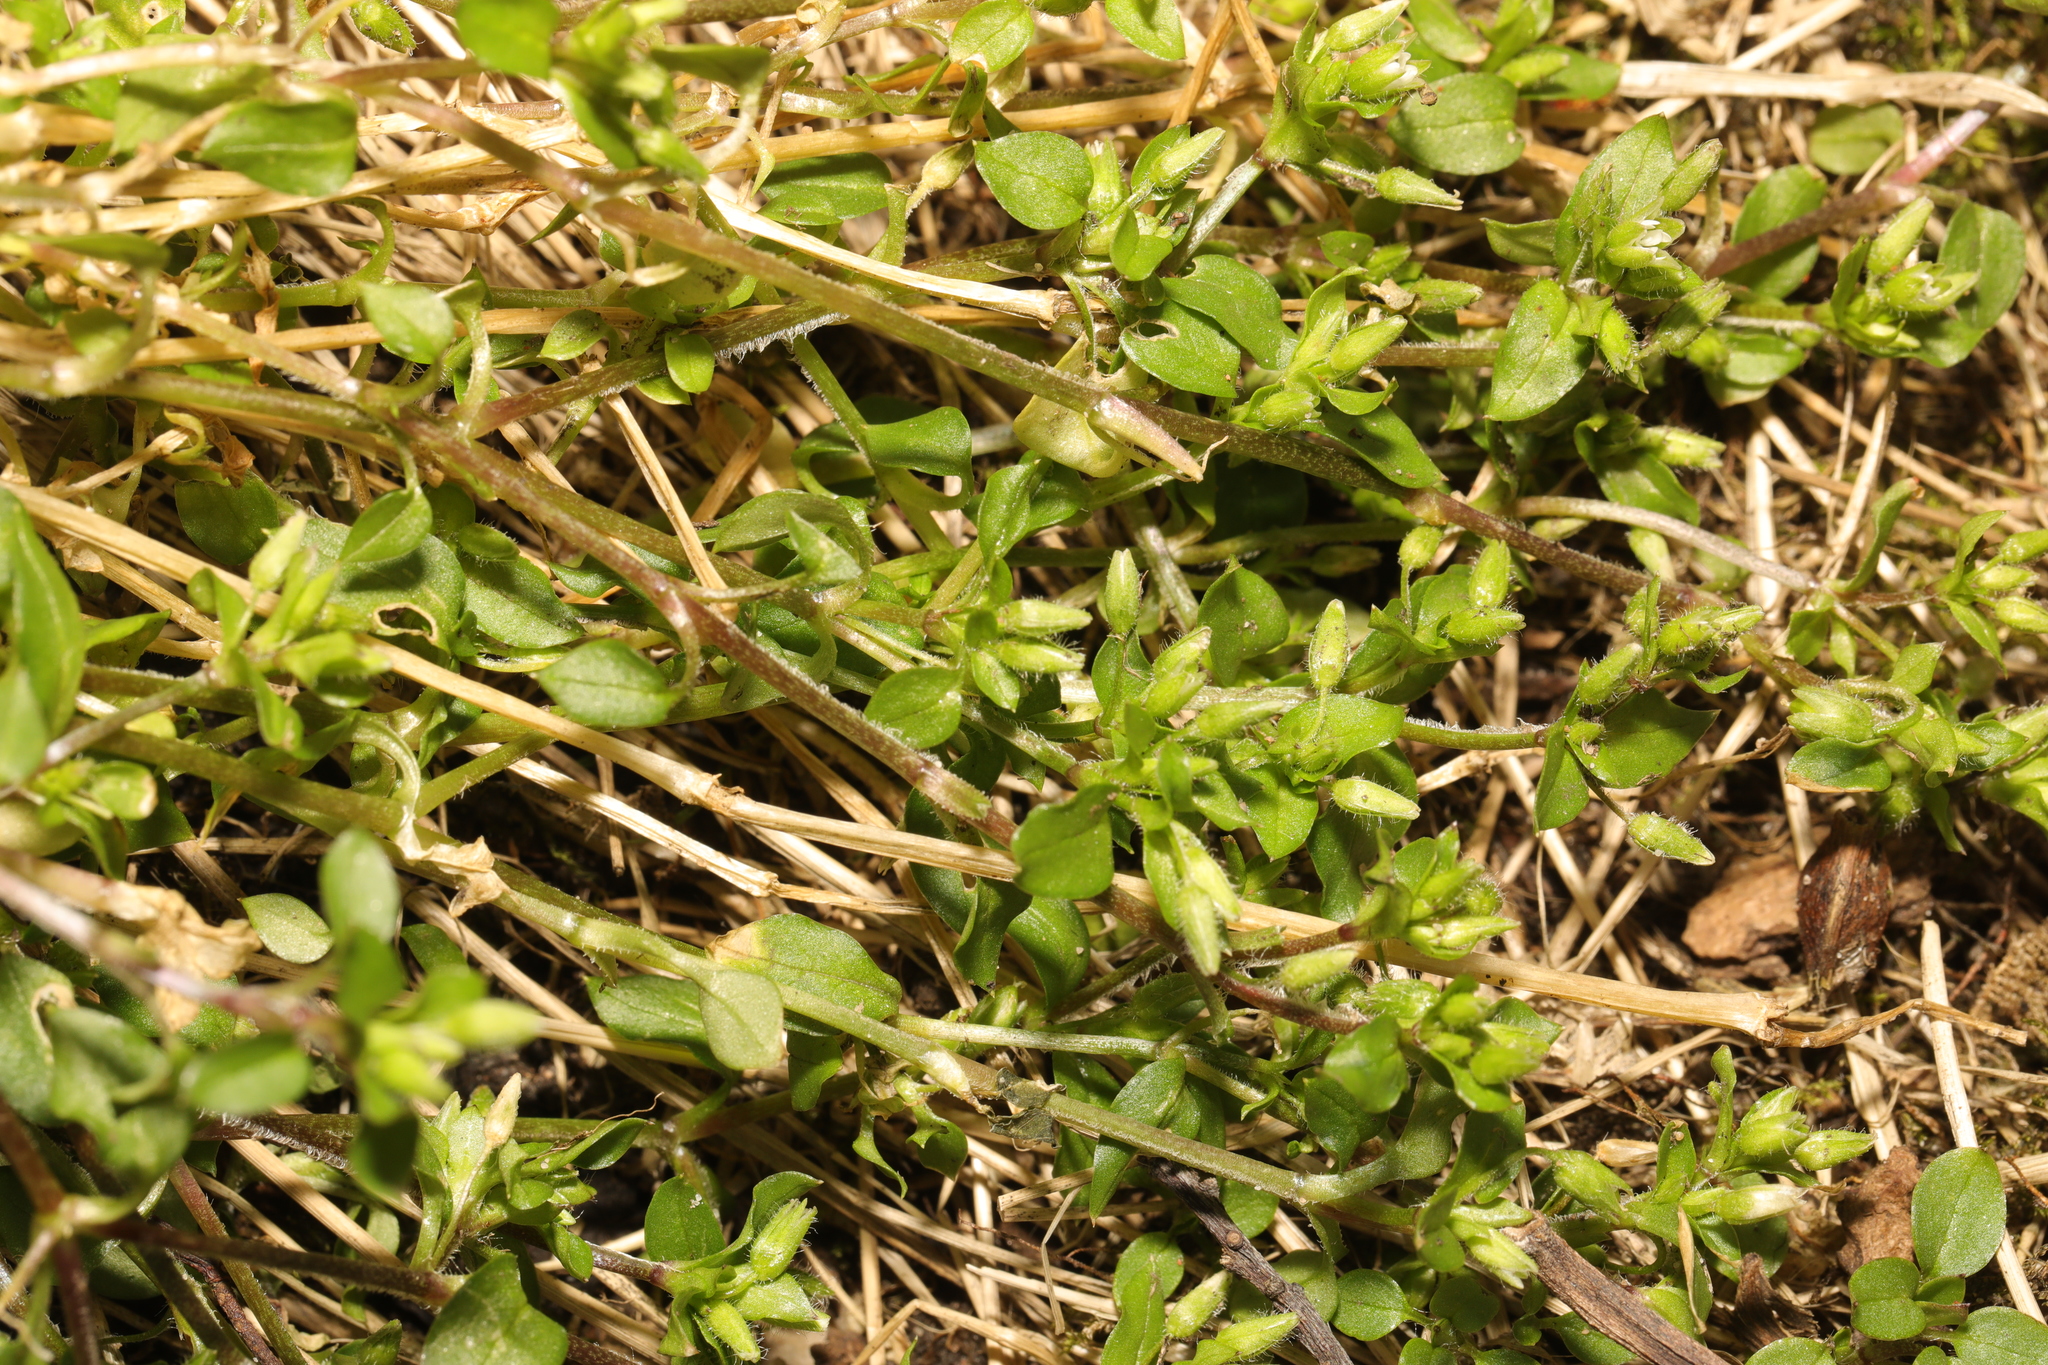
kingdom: Plantae
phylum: Tracheophyta
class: Magnoliopsida
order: Caryophyllales
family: Caryophyllaceae
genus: Stellaria
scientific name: Stellaria media
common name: Common chickweed
